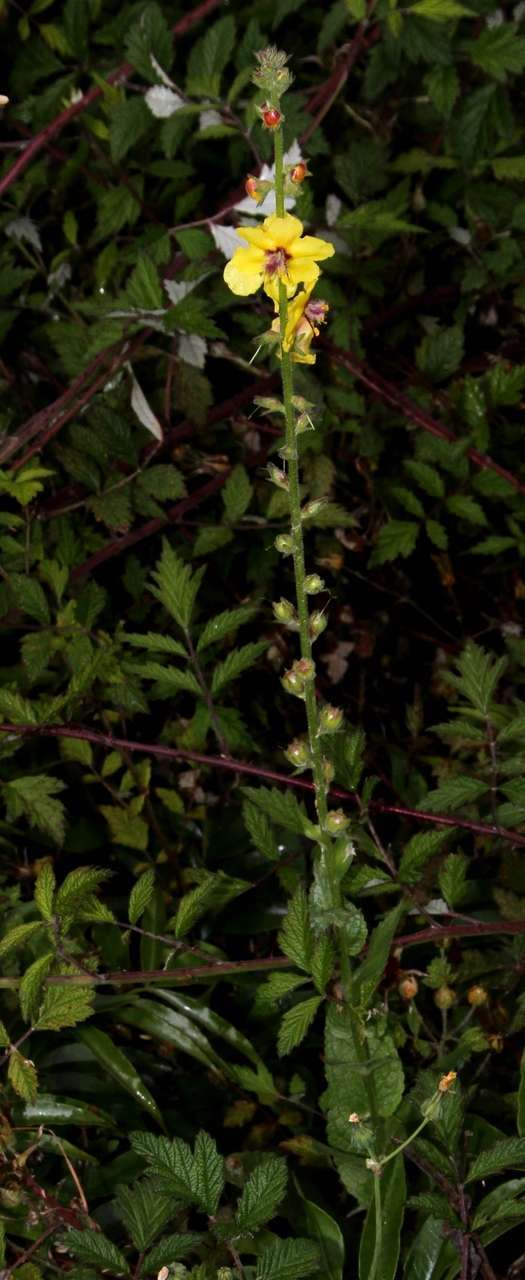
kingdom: Plantae
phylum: Tracheophyta
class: Magnoliopsida
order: Lamiales
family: Scrophulariaceae
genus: Verbascum
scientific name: Verbascum virgatum
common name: Twiggy mullein
